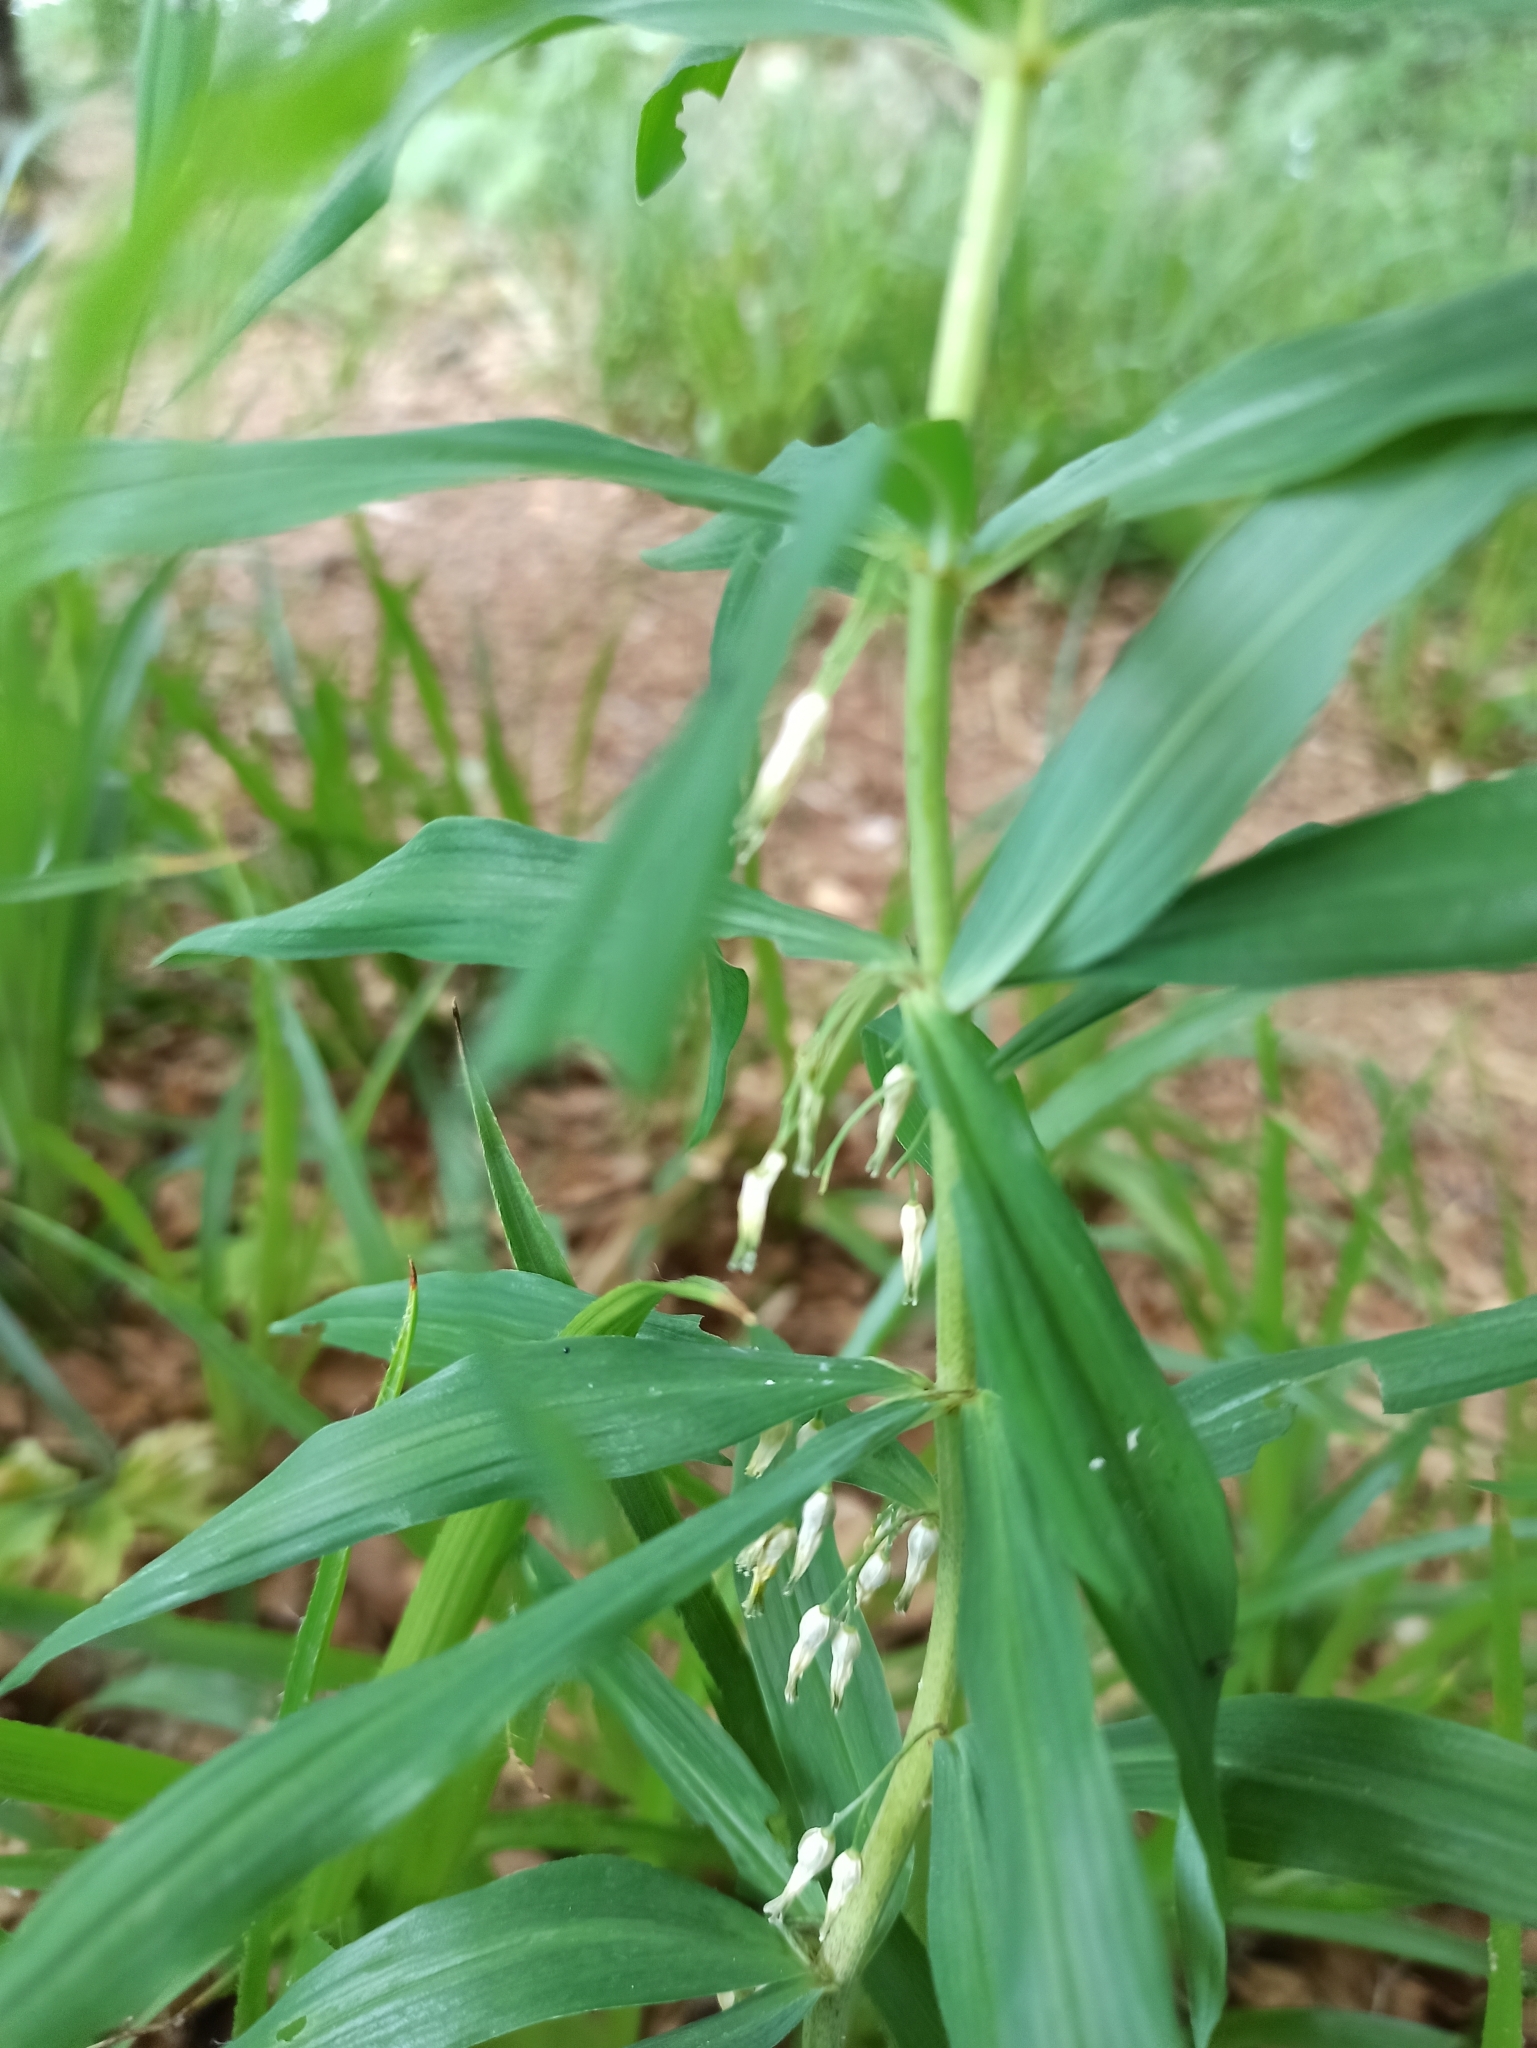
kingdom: Plantae
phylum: Tracheophyta
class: Liliopsida
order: Asparagales
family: Asparagaceae
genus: Polygonatum
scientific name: Polygonatum verticillatum
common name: Whorled solomon's-seal
